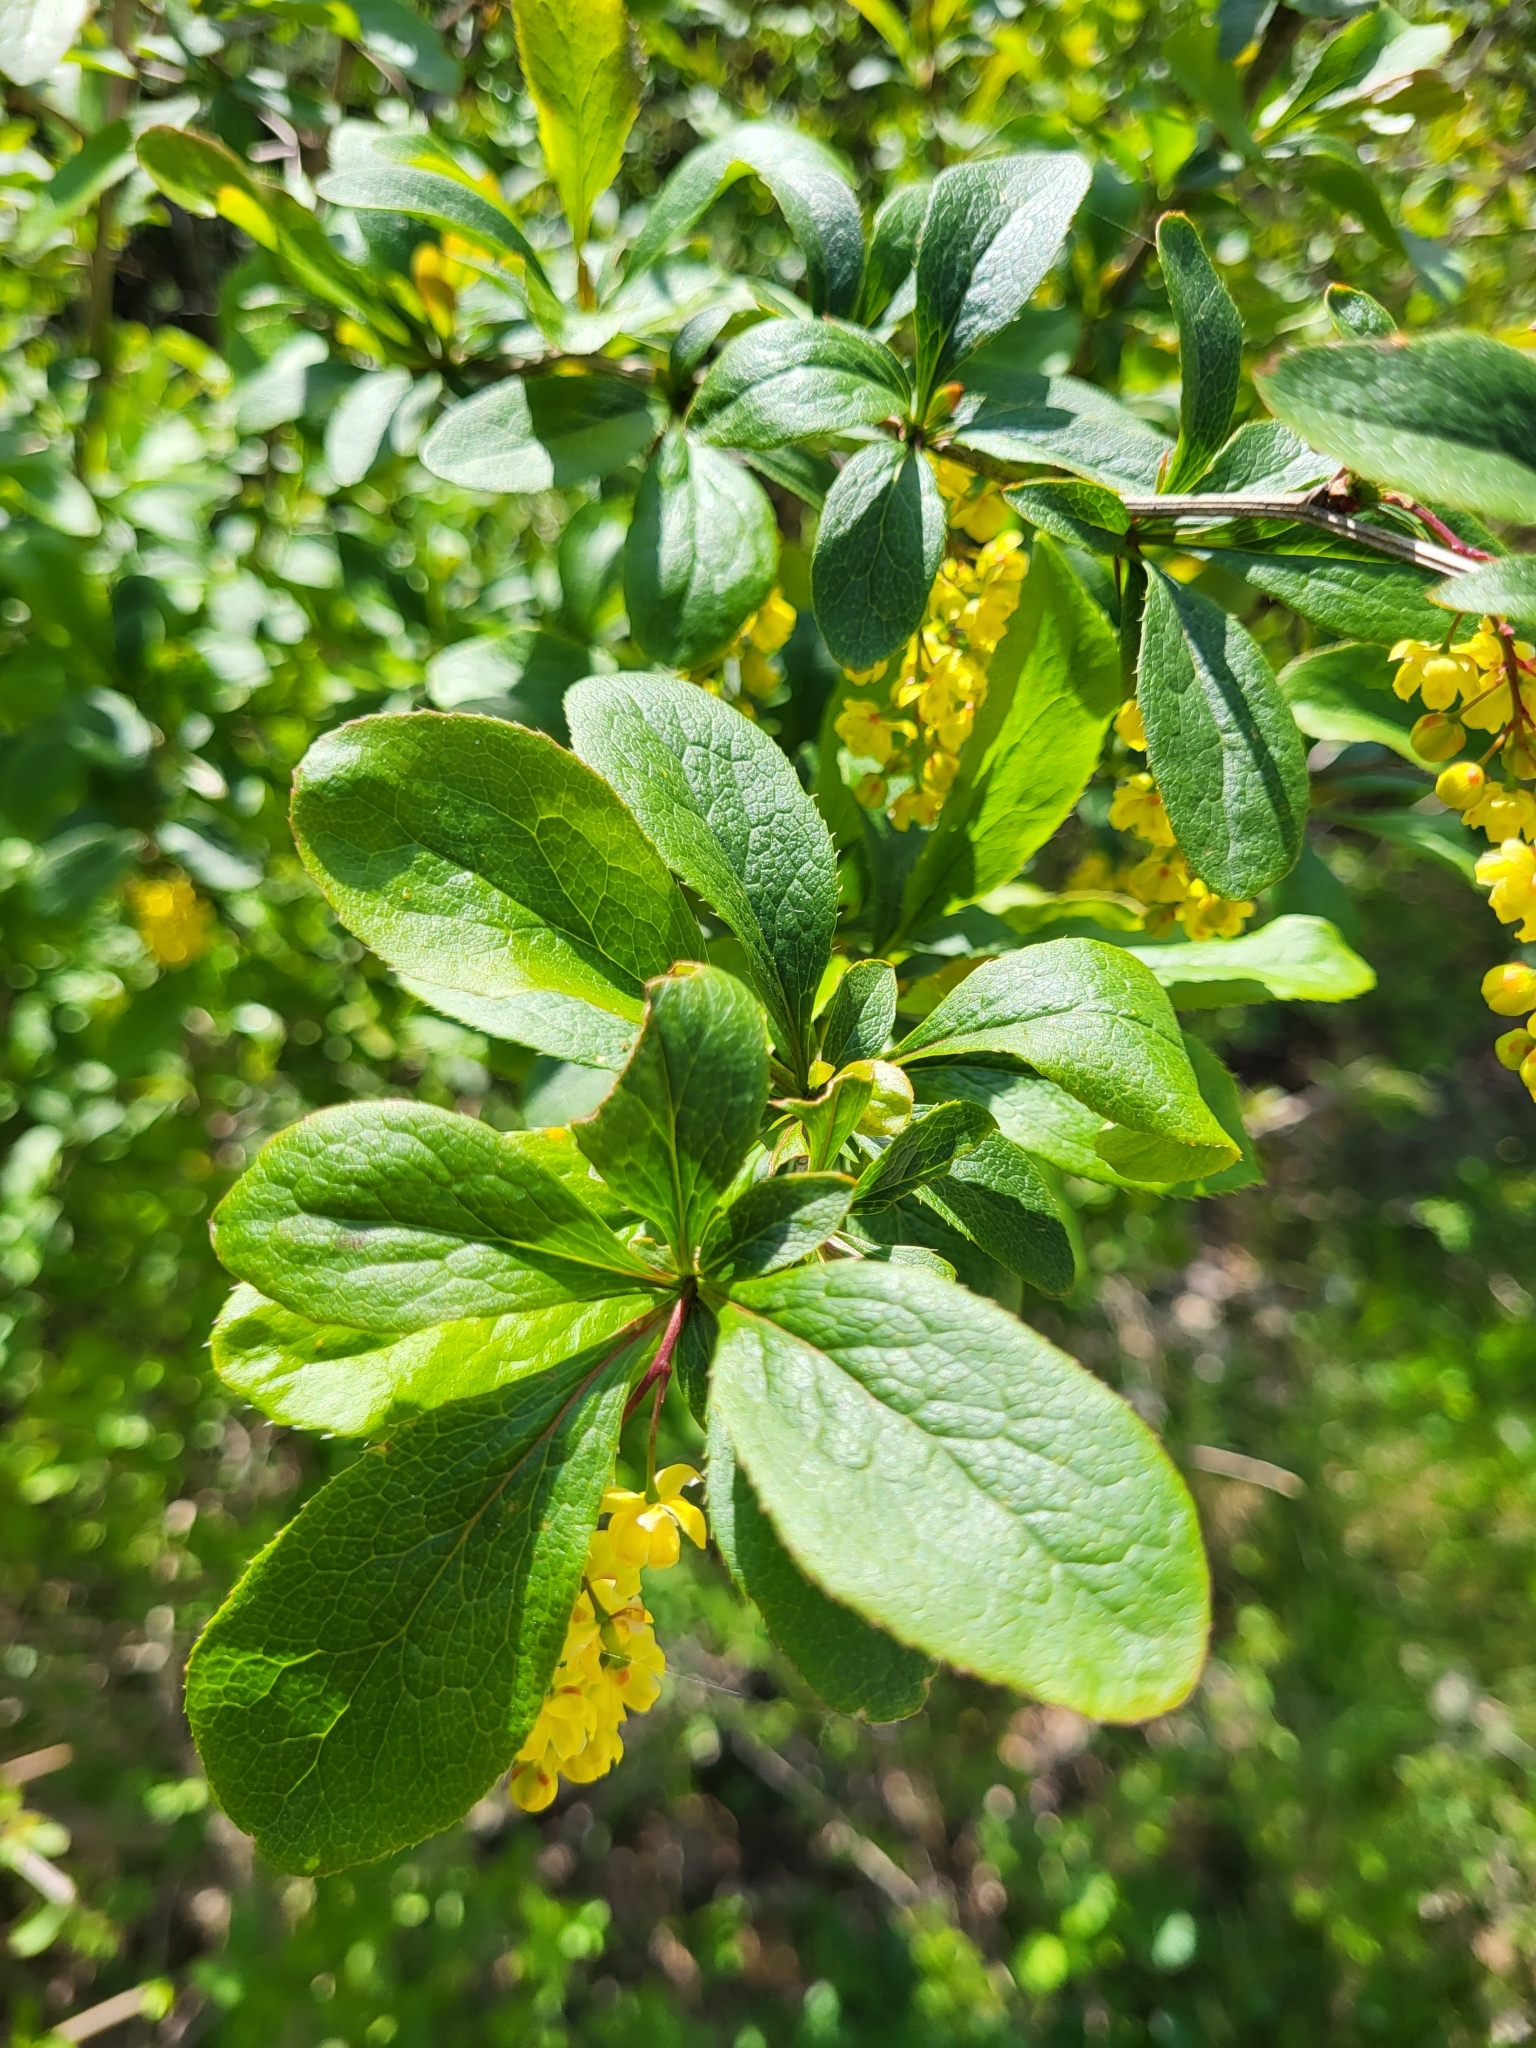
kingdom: Plantae
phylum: Tracheophyta
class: Magnoliopsida
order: Ranunculales
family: Berberidaceae
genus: Berberis
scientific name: Berberis vulgaris
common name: Barberry
